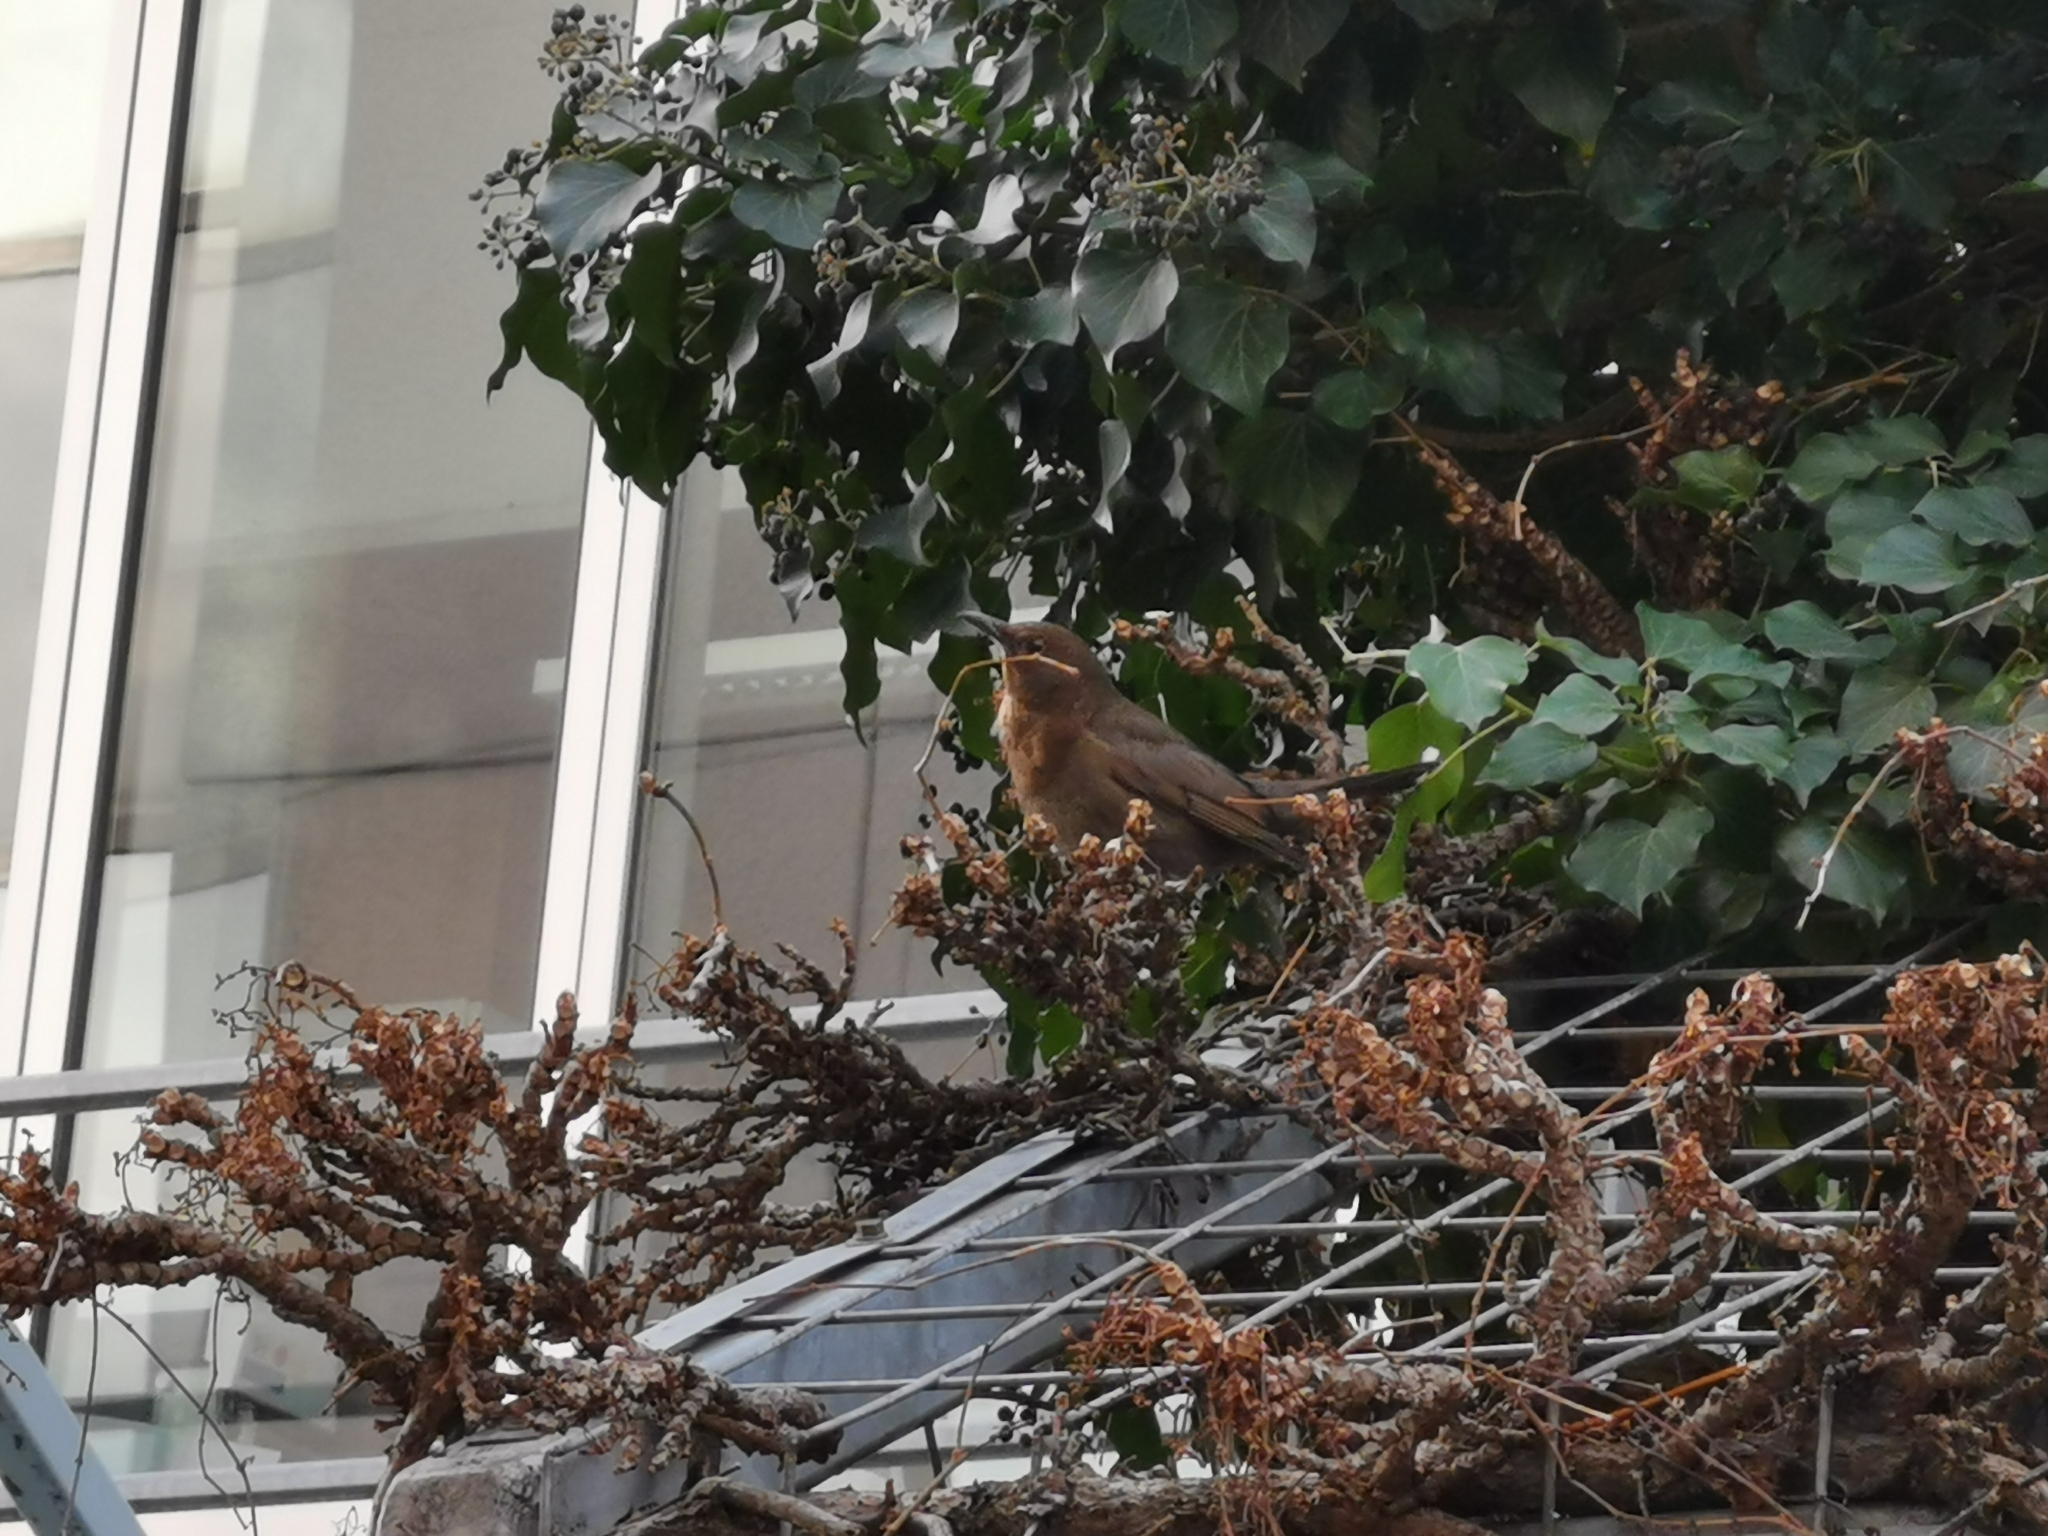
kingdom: Animalia
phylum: Chordata
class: Aves
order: Passeriformes
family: Turdidae
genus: Turdus
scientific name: Turdus merula
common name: Common blackbird
